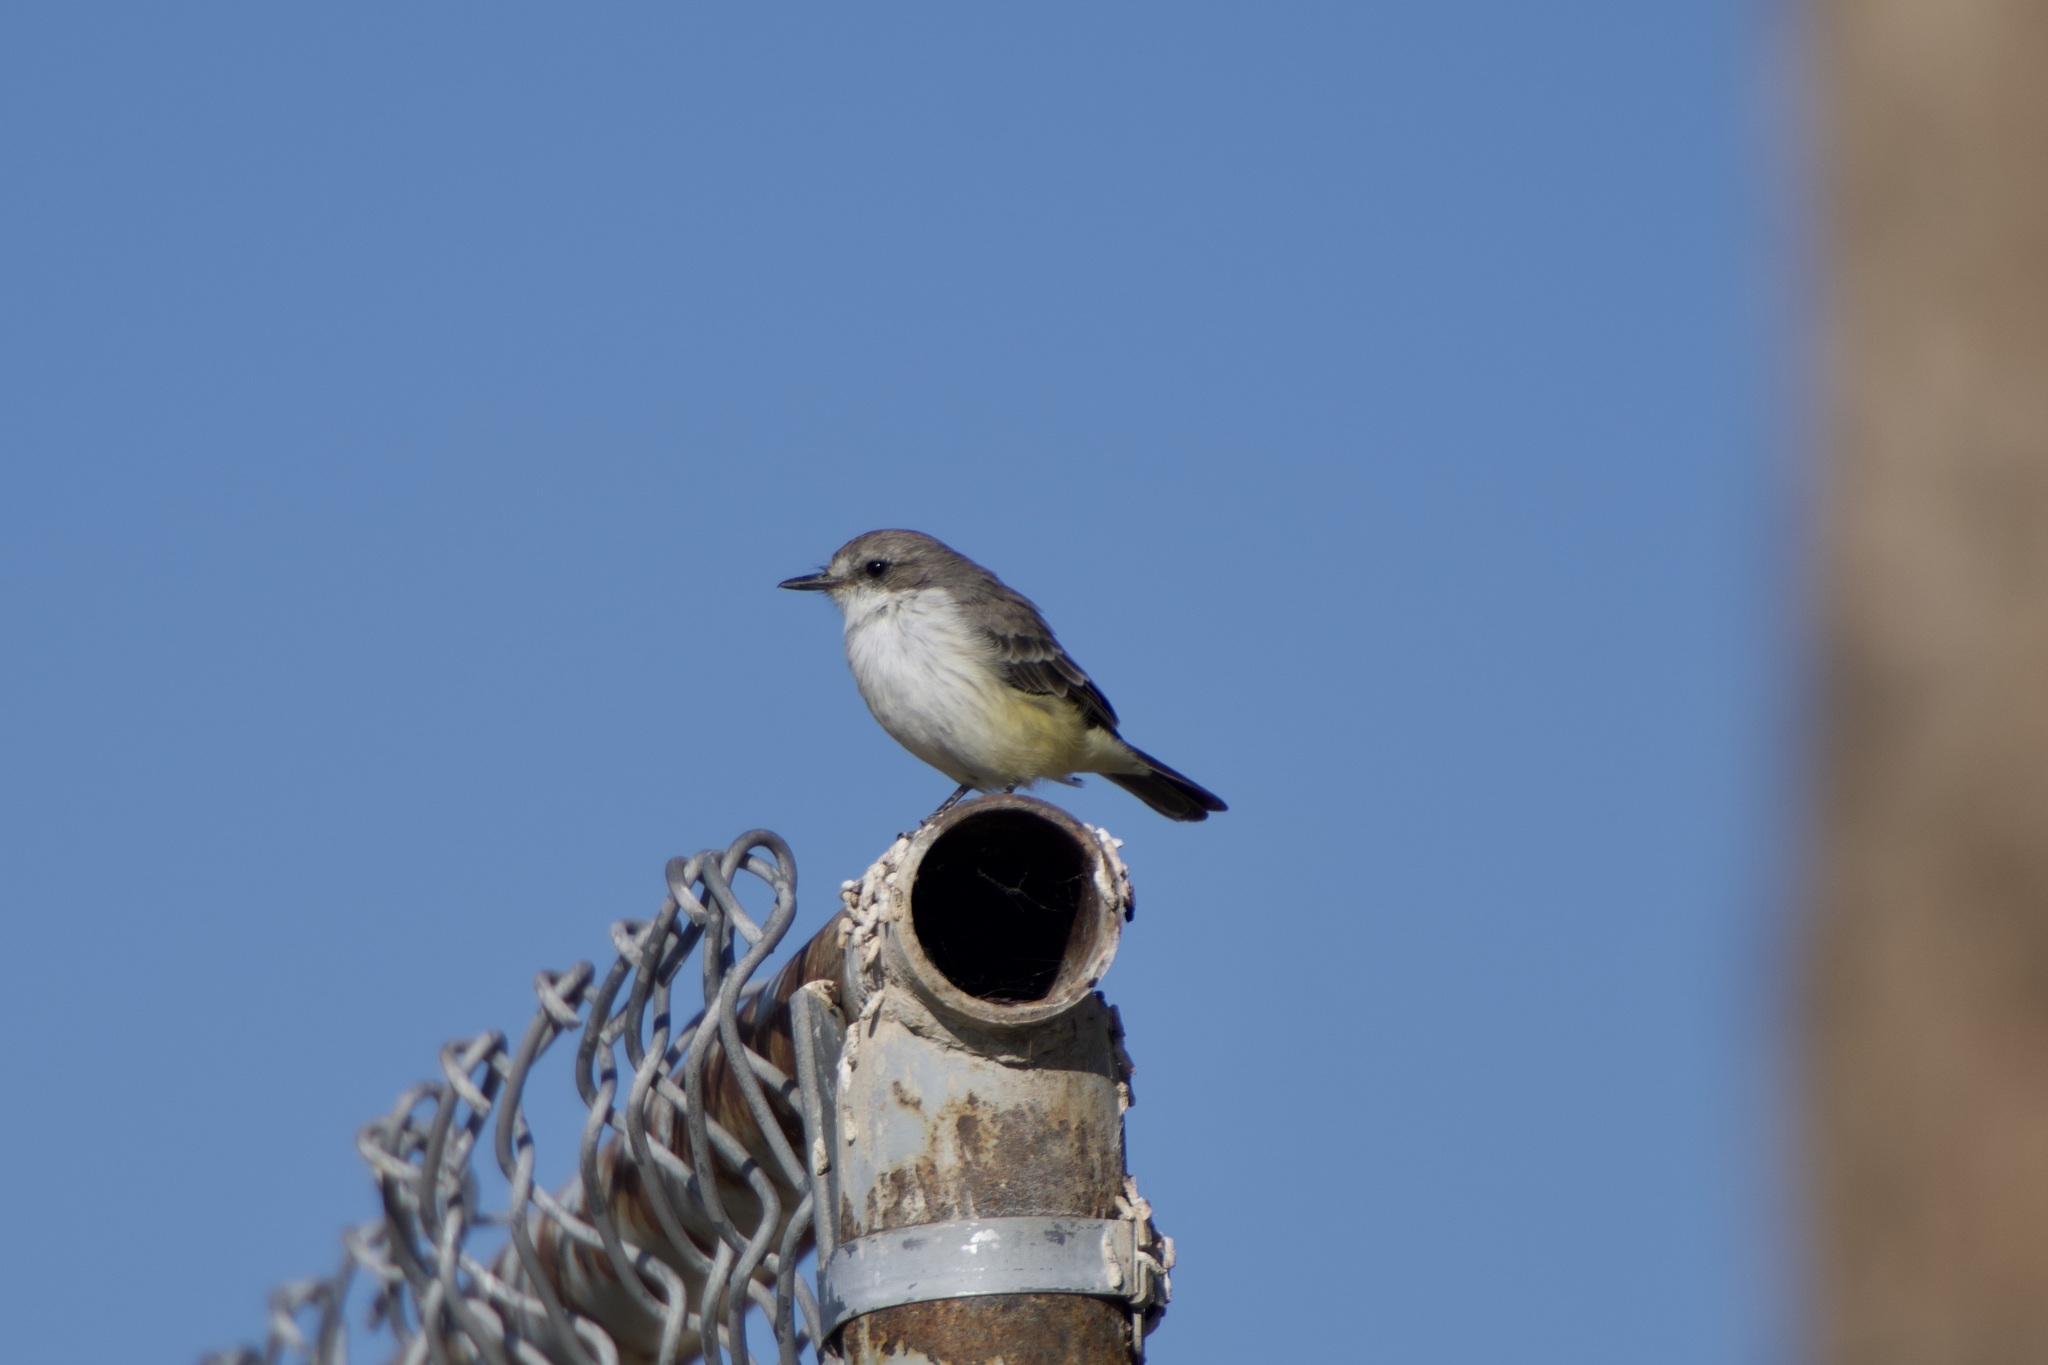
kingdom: Animalia
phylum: Chordata
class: Aves
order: Passeriformes
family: Tyrannidae
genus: Pyrocephalus
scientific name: Pyrocephalus rubinus
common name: Vermilion flycatcher
